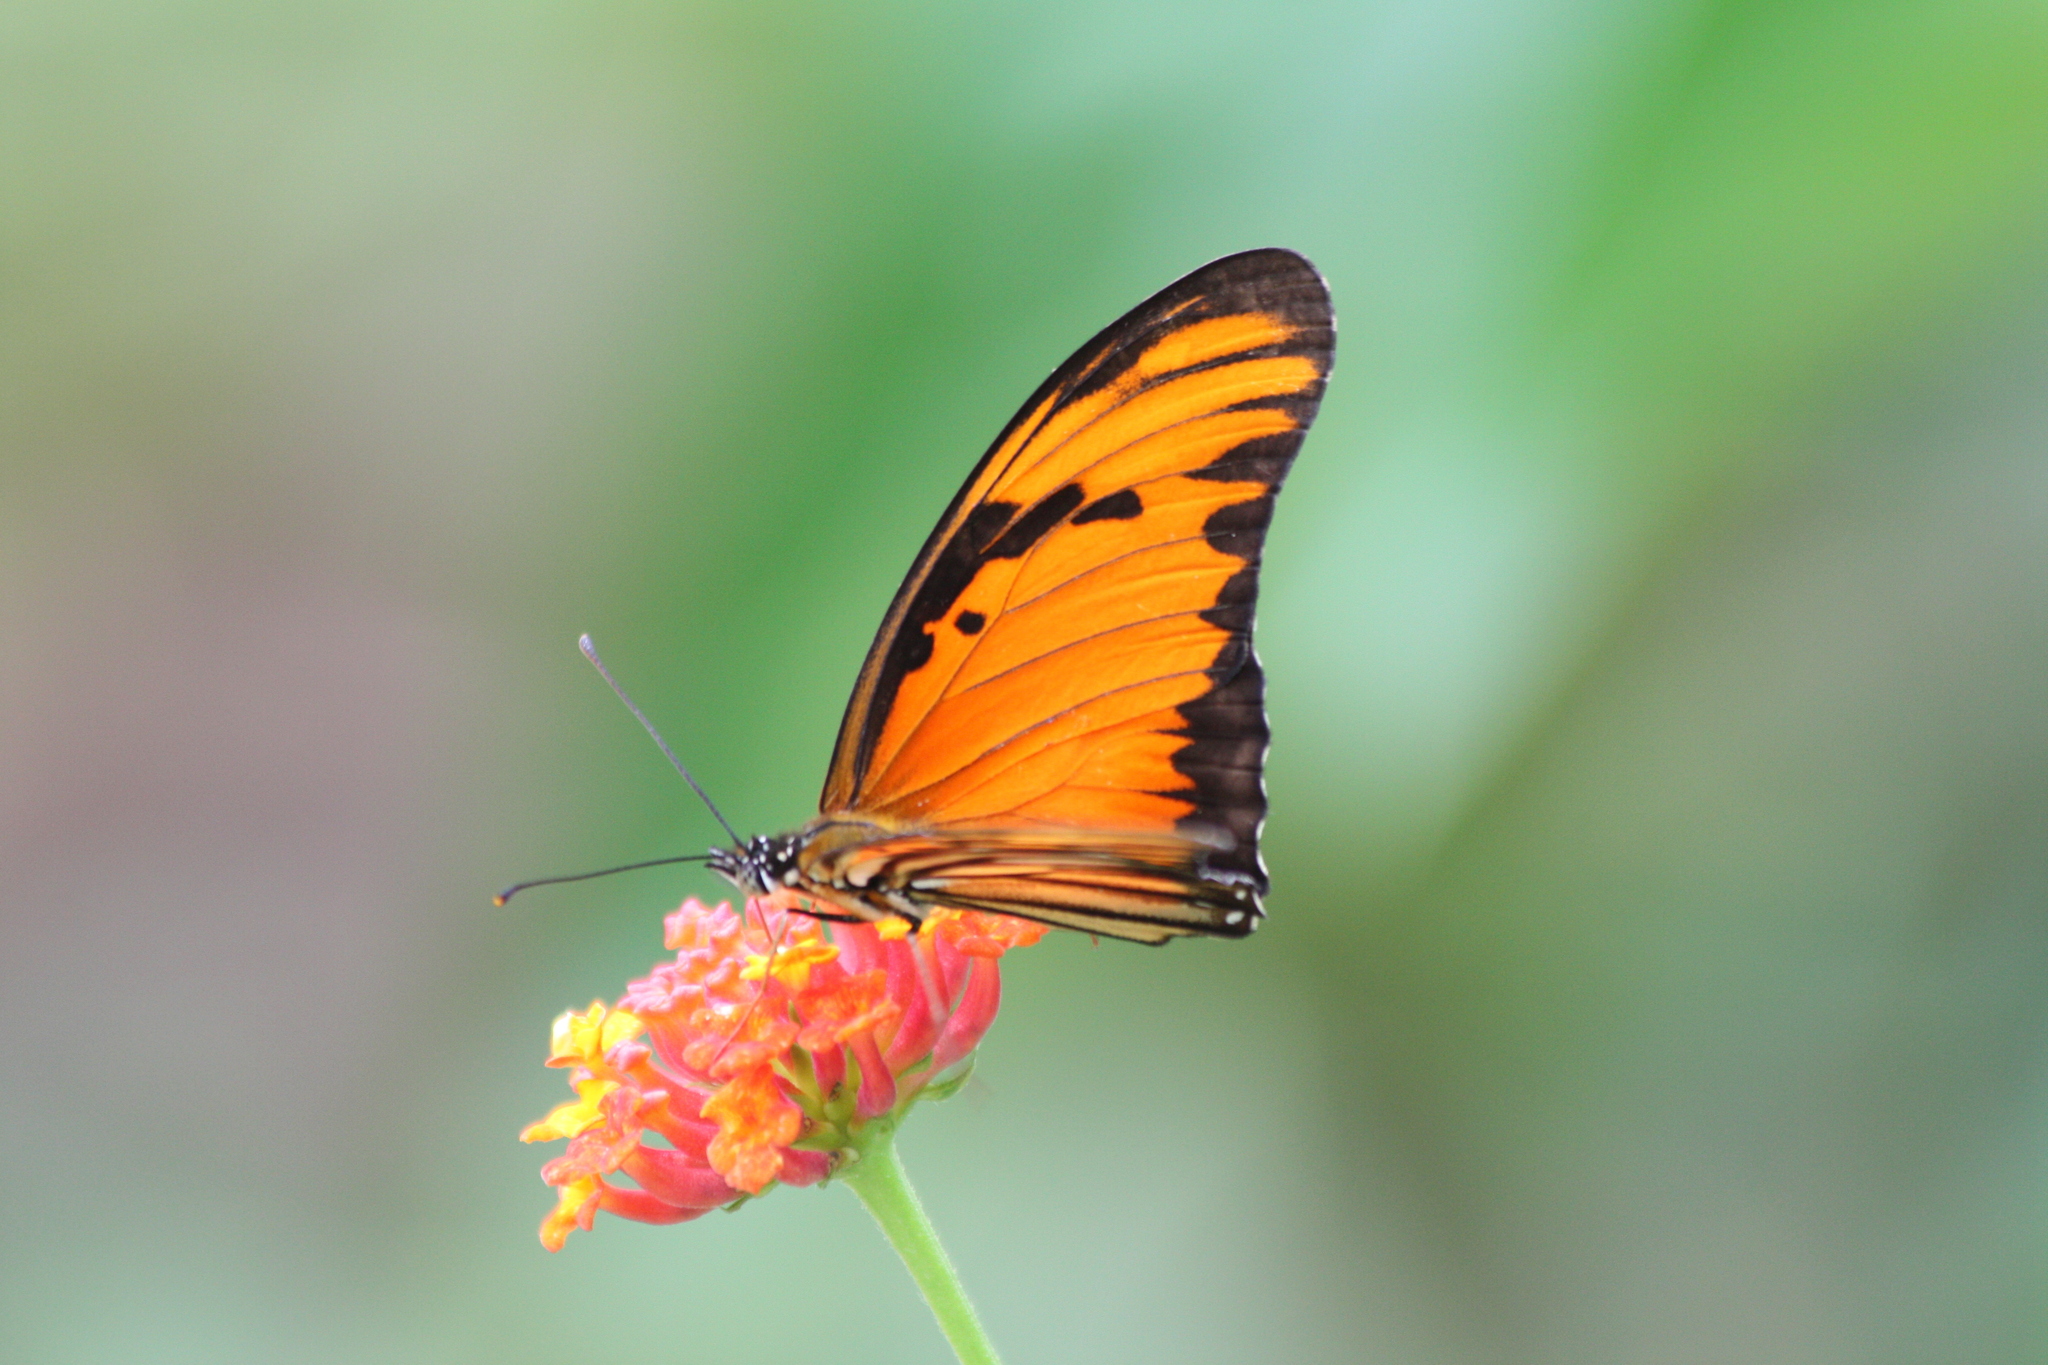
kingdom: Animalia
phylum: Arthropoda
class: Insecta
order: Lepidoptera
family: Nymphalidae
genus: Dione
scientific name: Dione vanillae
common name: Gulf fritillary
